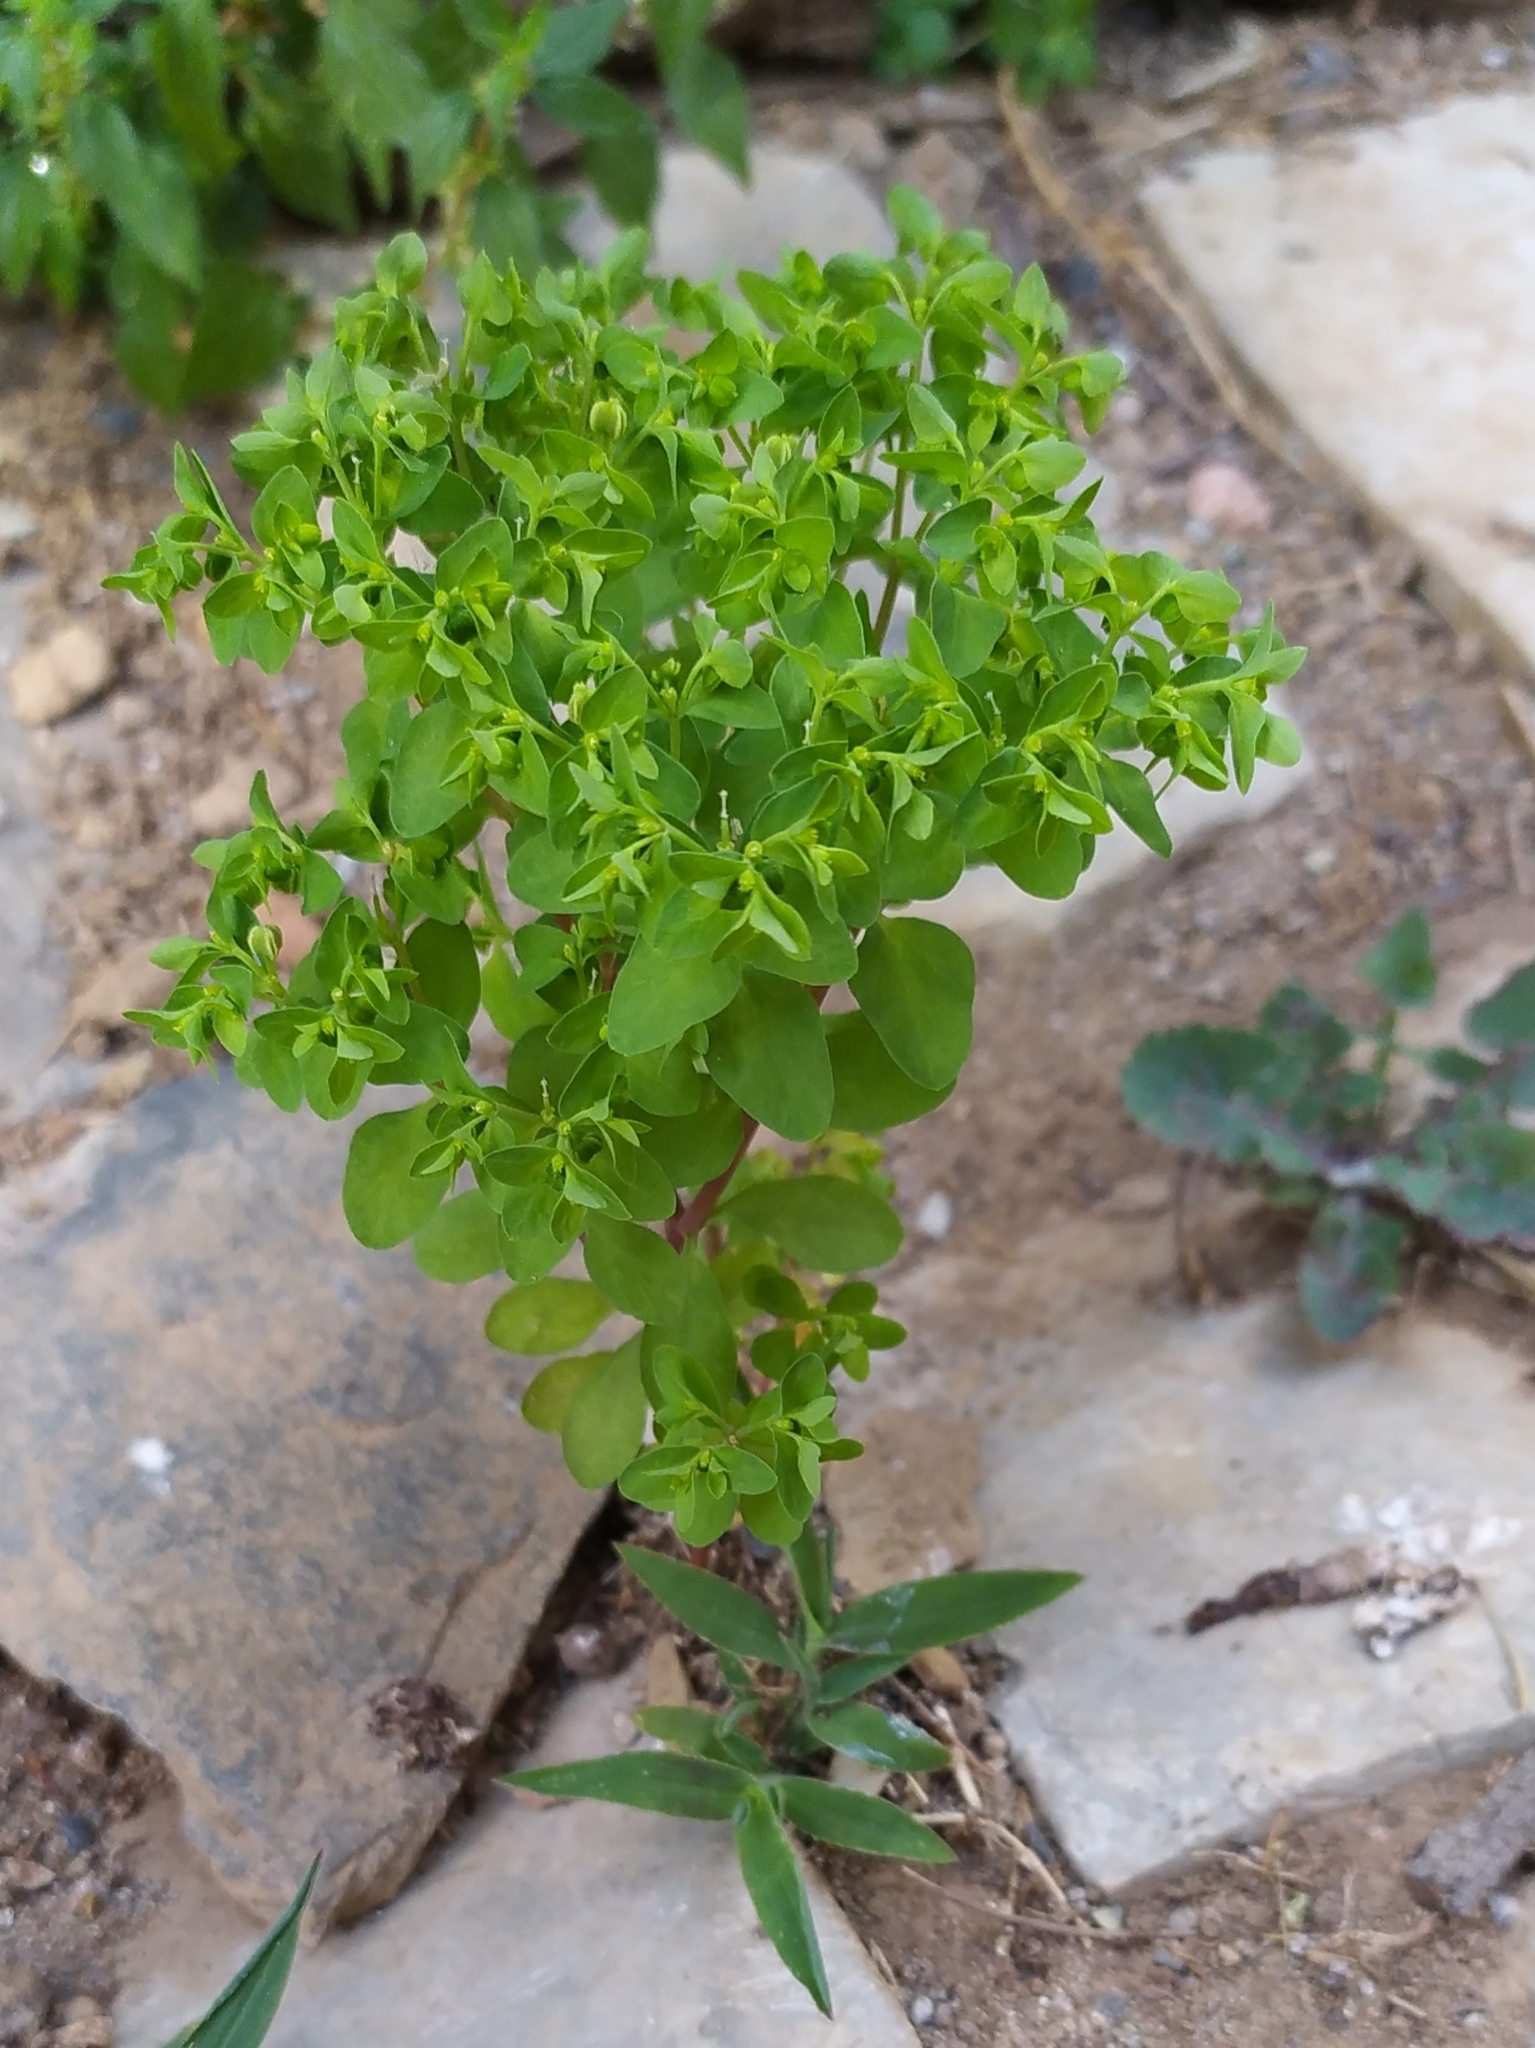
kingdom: Plantae
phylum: Tracheophyta
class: Magnoliopsida
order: Malpighiales
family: Euphorbiaceae
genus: Euphorbia
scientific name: Euphorbia peplus
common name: Petty spurge
